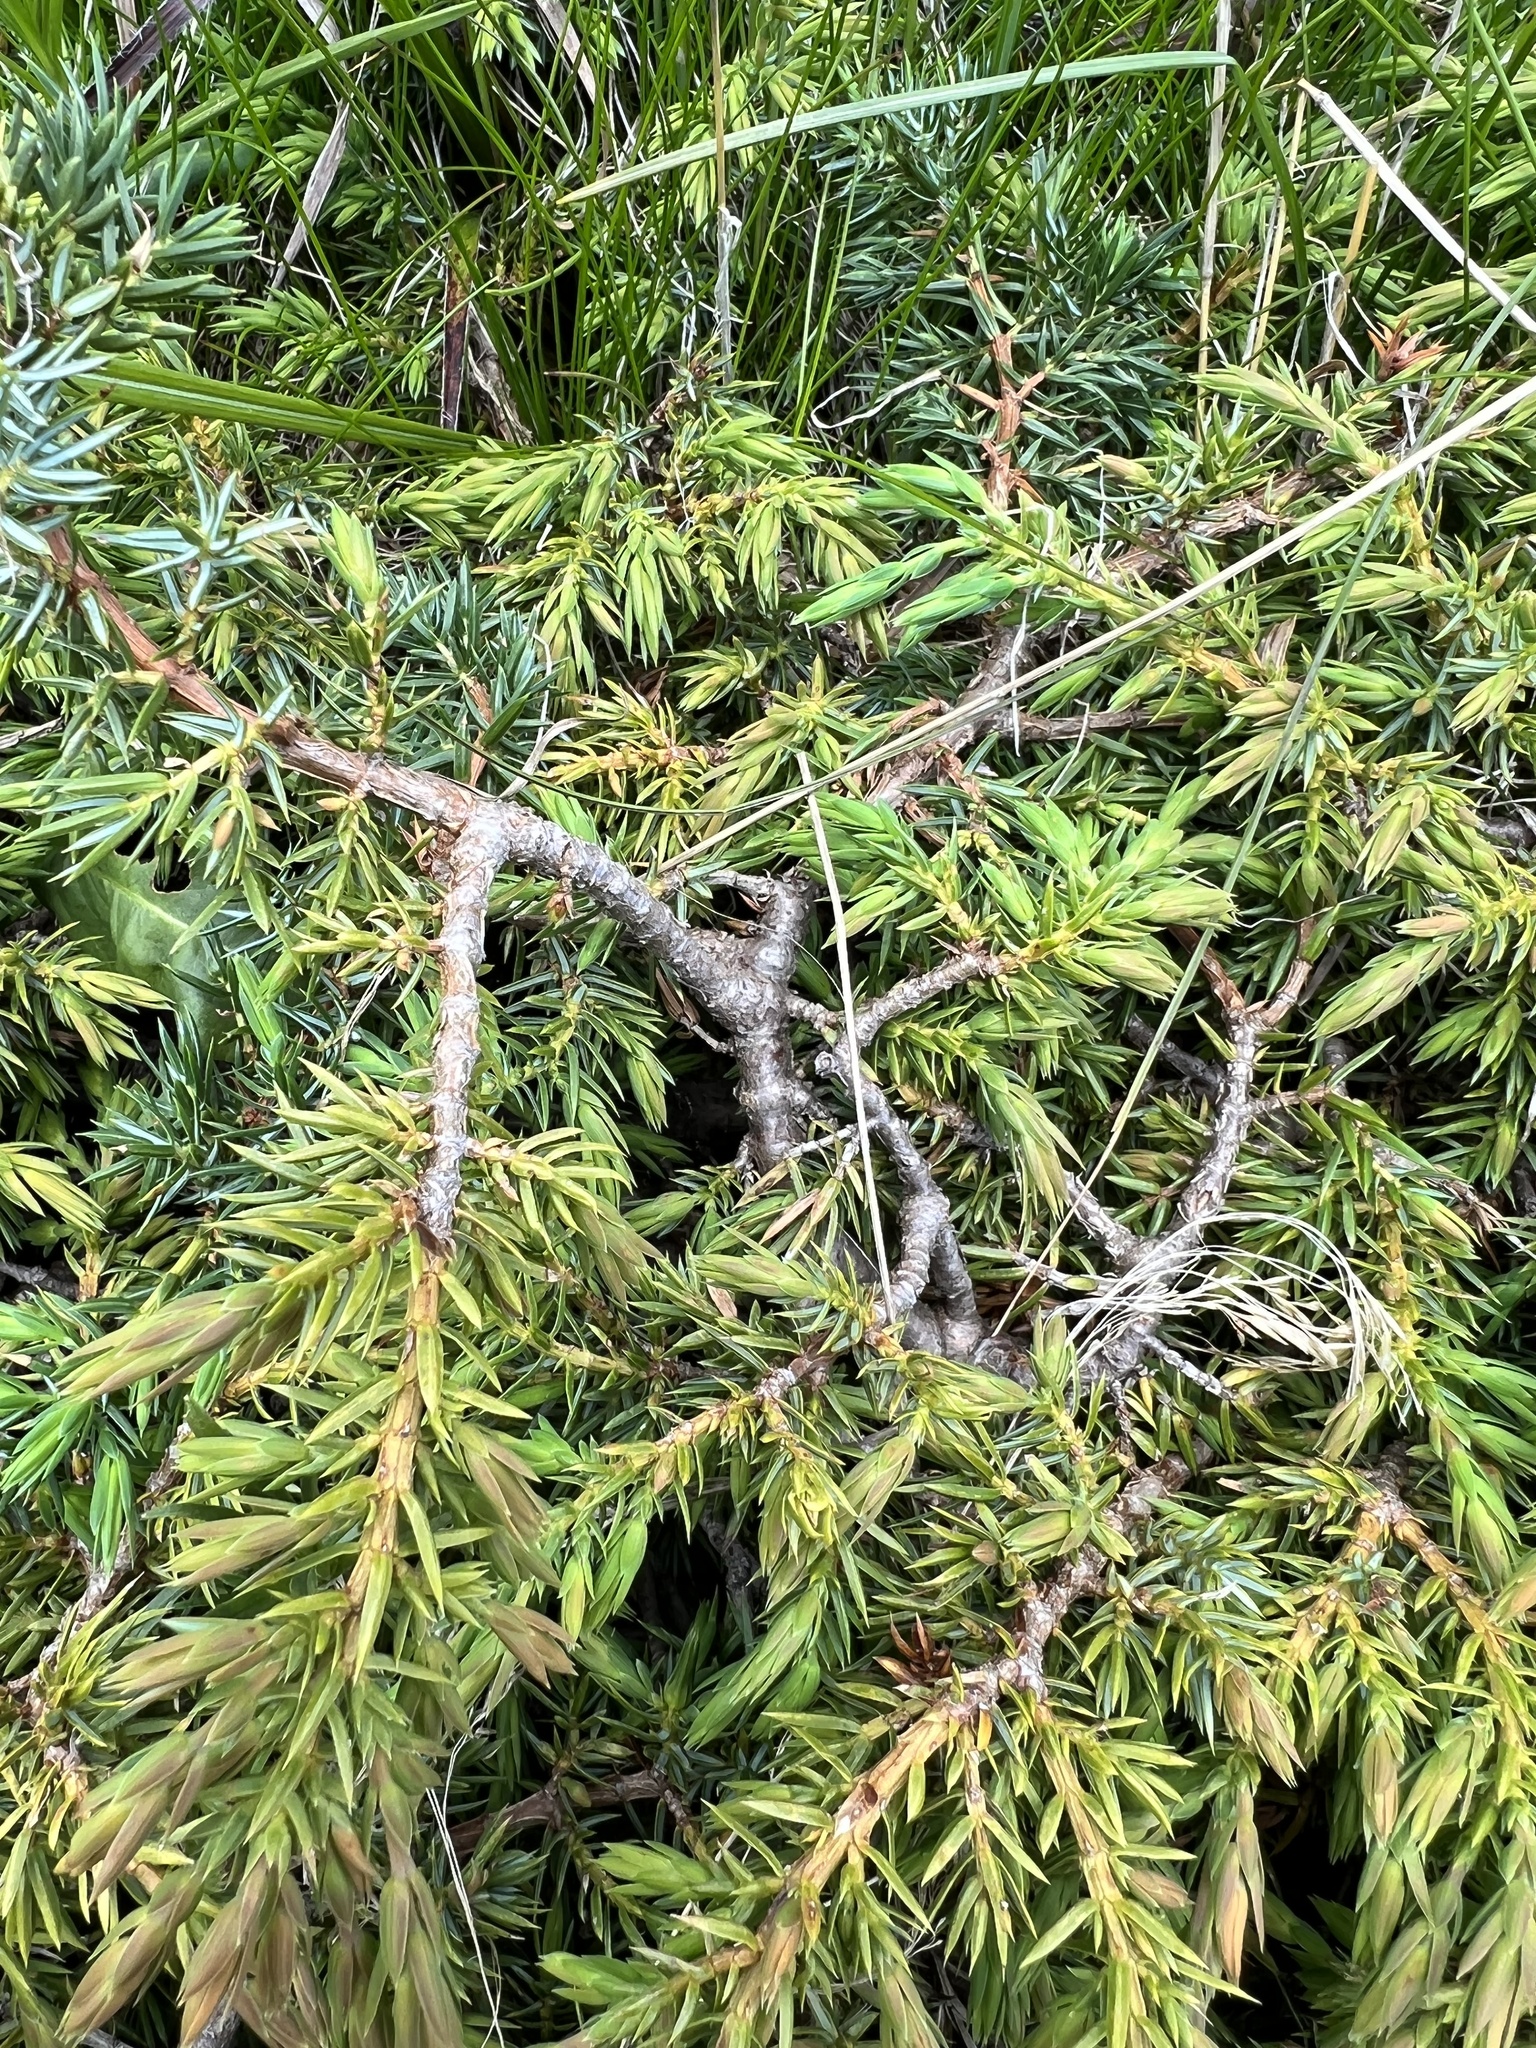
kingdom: Plantae
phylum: Tracheophyta
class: Pinopsida
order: Pinales
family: Cupressaceae
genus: Juniperus
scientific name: Juniperus communis
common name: Common juniper
